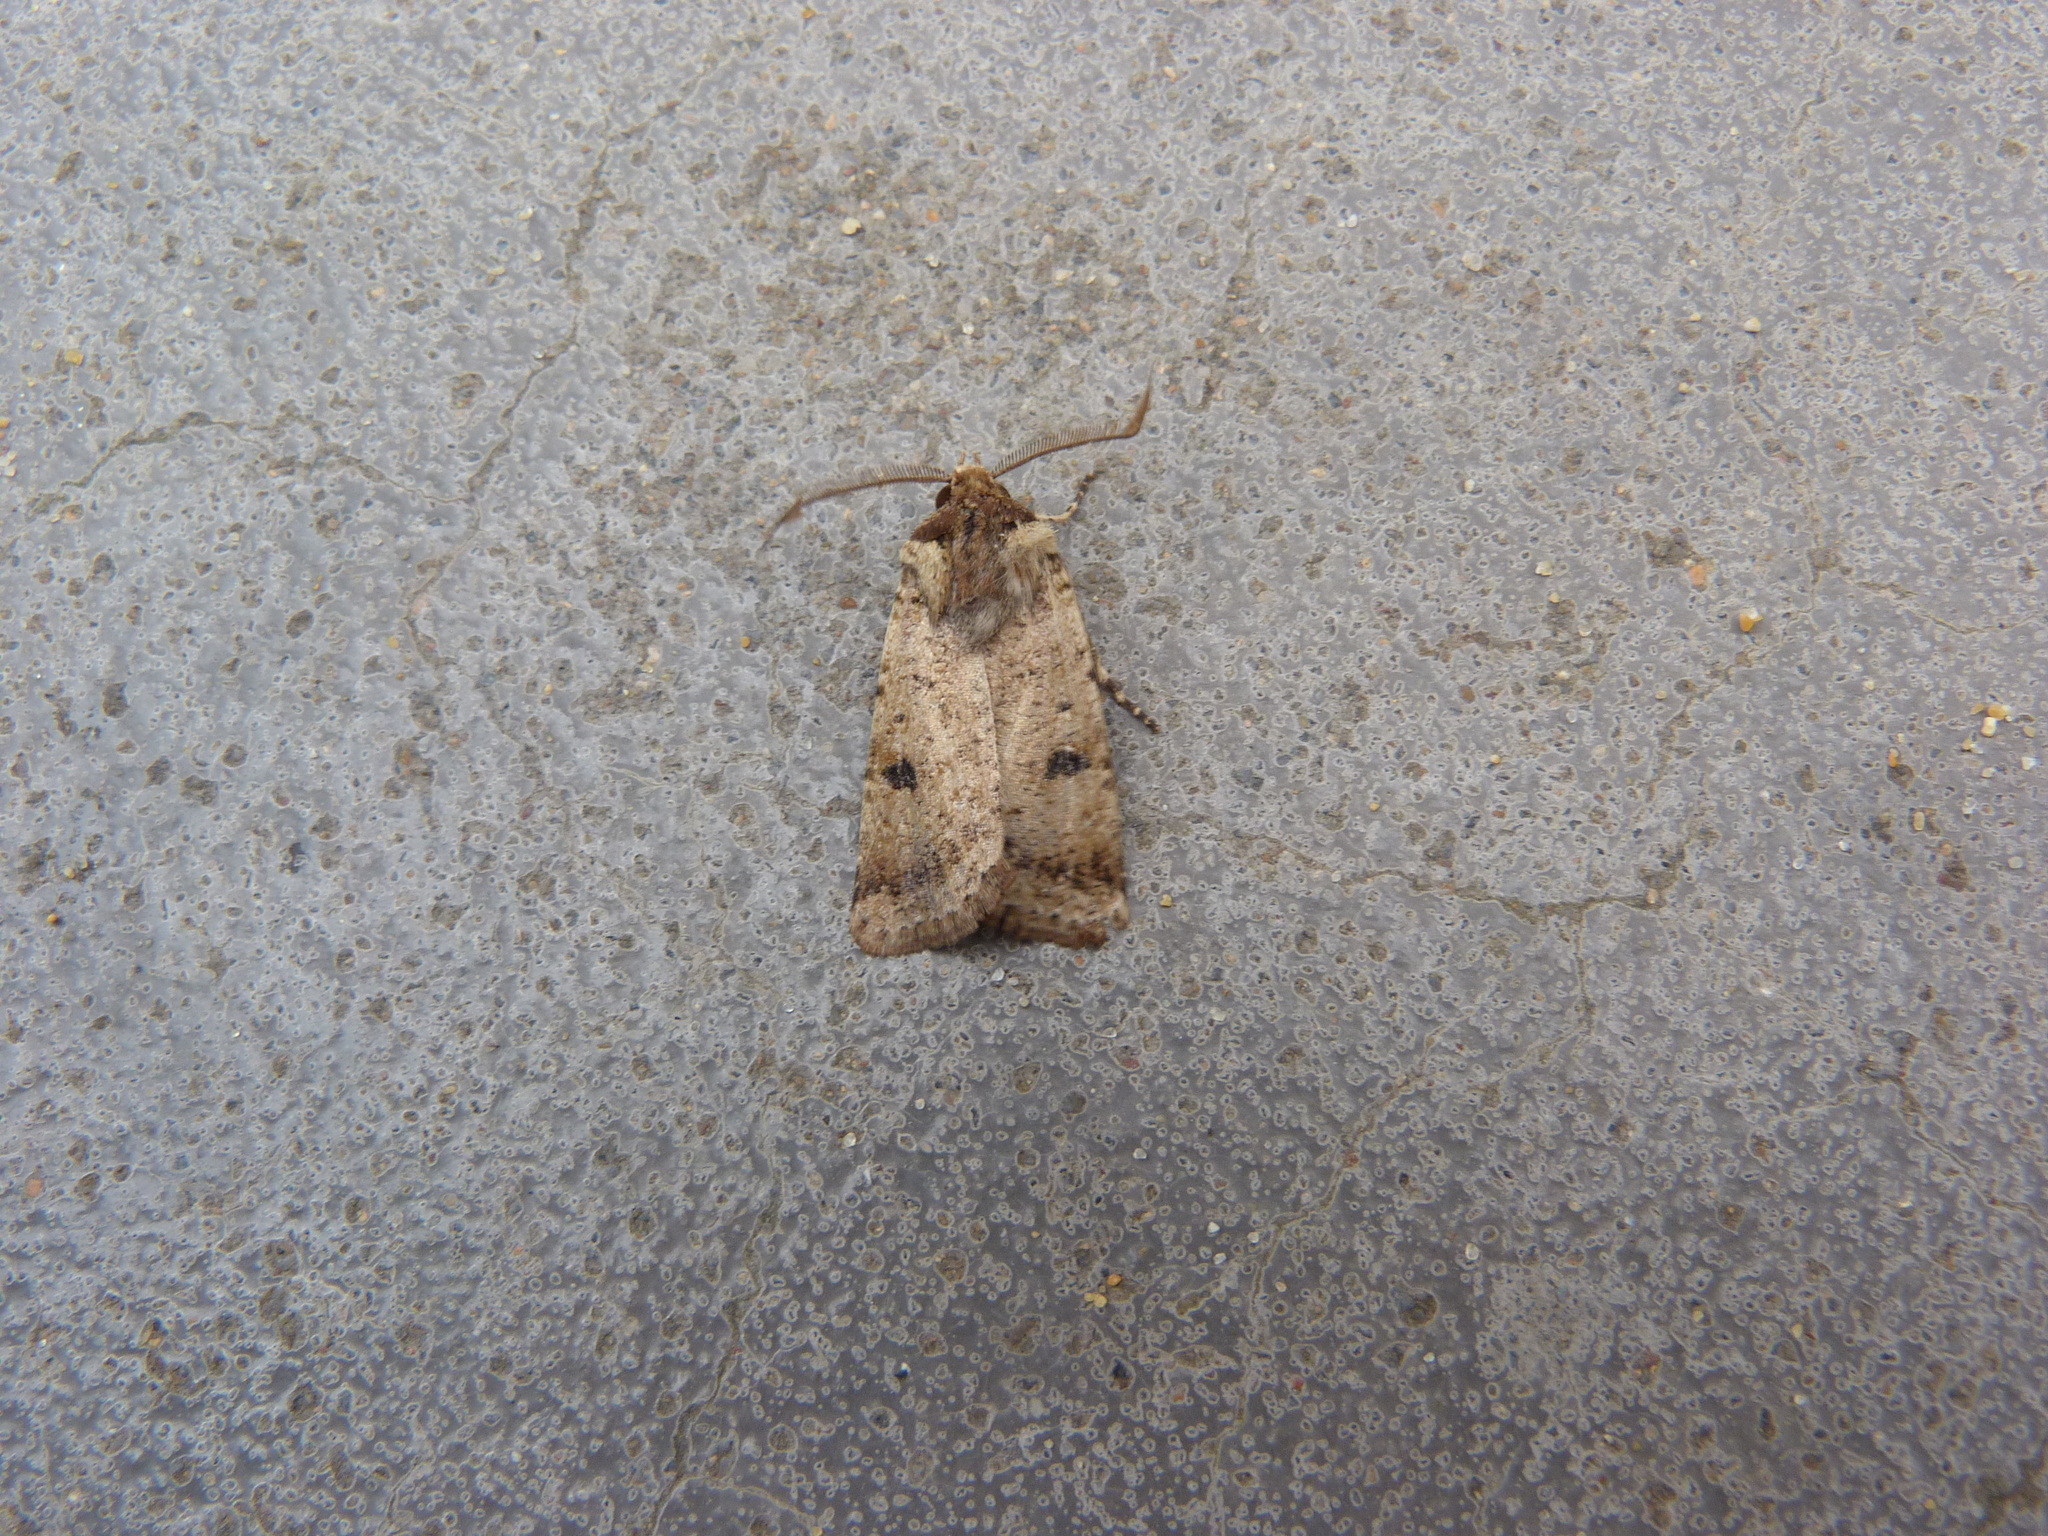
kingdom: Animalia
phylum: Arthropoda
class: Insecta
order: Lepidoptera
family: Noctuidae
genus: Agrotis
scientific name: Agrotis porphyricollis
